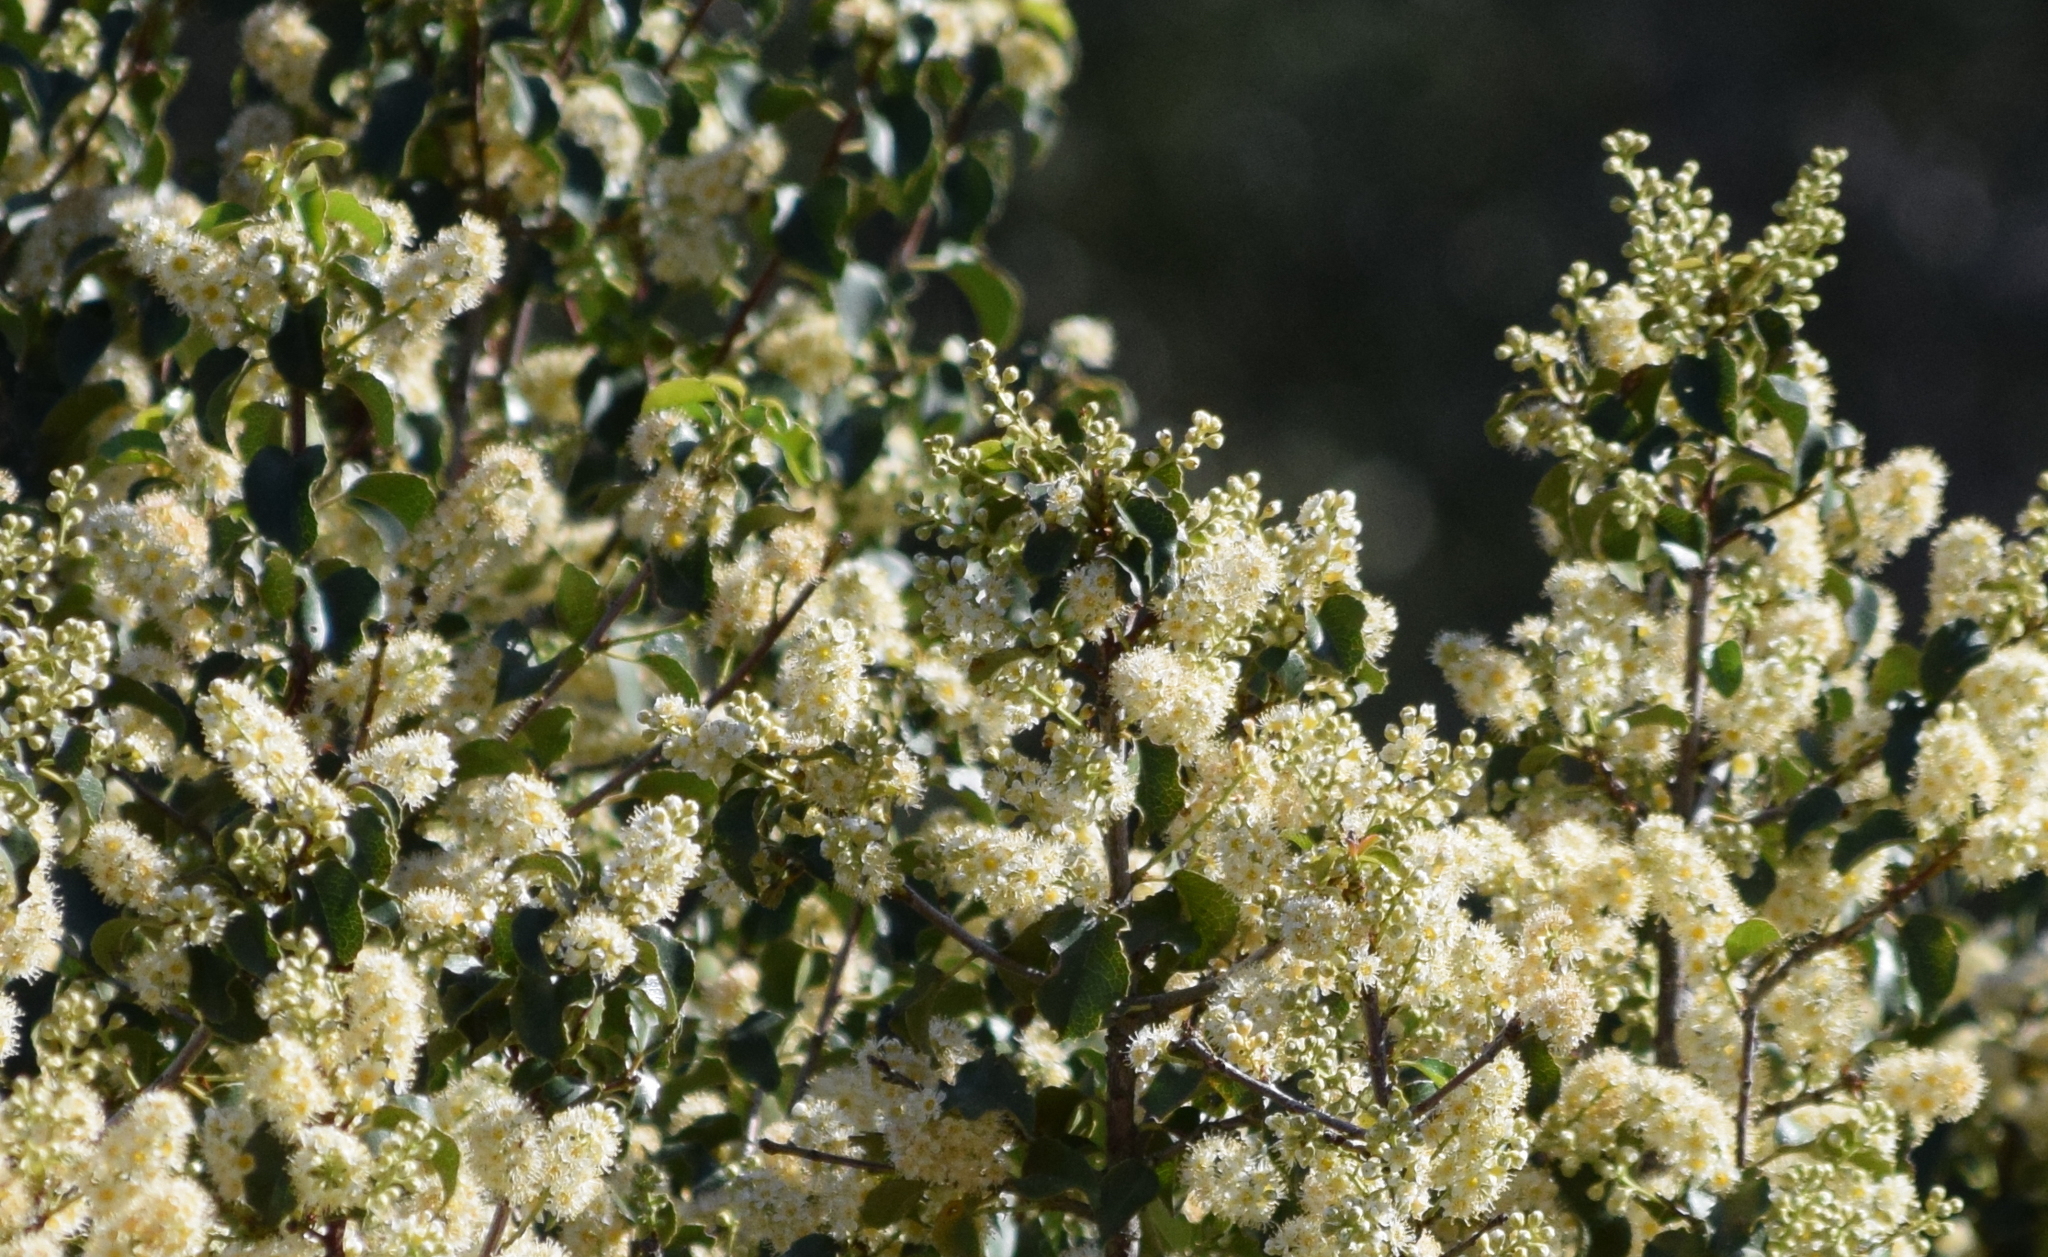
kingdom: Plantae
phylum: Tracheophyta
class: Magnoliopsida
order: Rosales
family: Rosaceae
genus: Prunus
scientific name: Prunus ilicifolia
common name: Hollyleaf cherry
